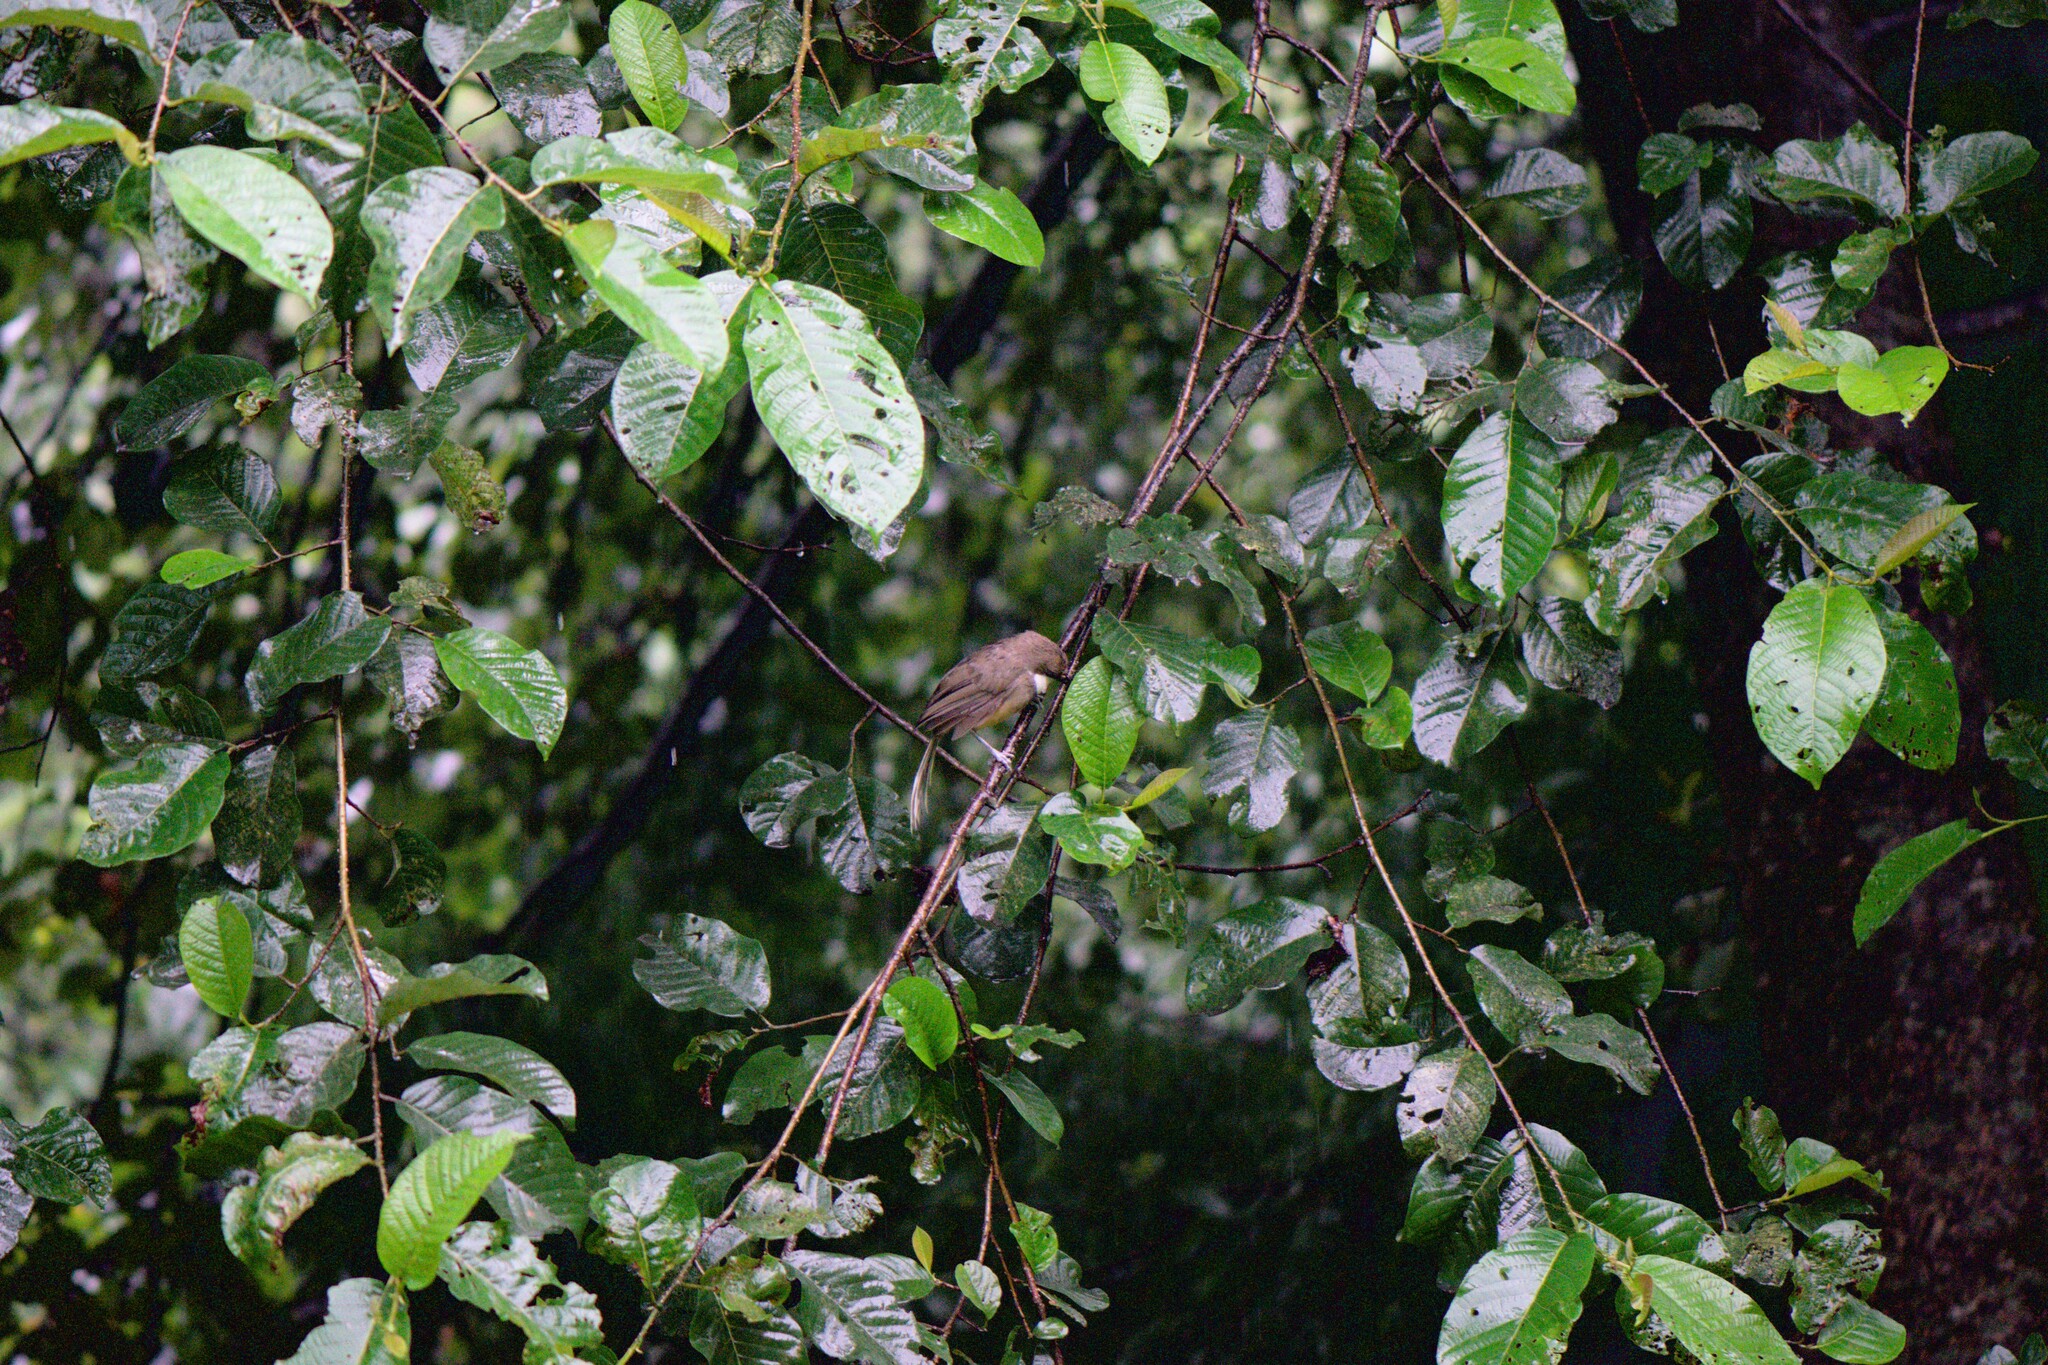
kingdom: Animalia
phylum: Chordata
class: Aves
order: Passeriformes
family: Leiothrichidae
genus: Garrulax
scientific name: Garrulax albogularis
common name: White-throated laughingthrush
